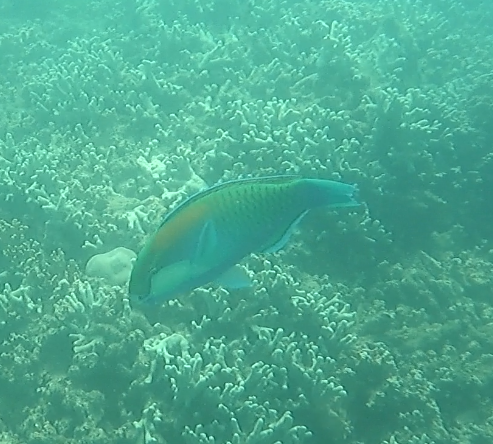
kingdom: Animalia
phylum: Chordata
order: Perciformes
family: Scaridae
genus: Chlorurus
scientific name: Chlorurus bleekeri
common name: Bleeker's parrotfish
